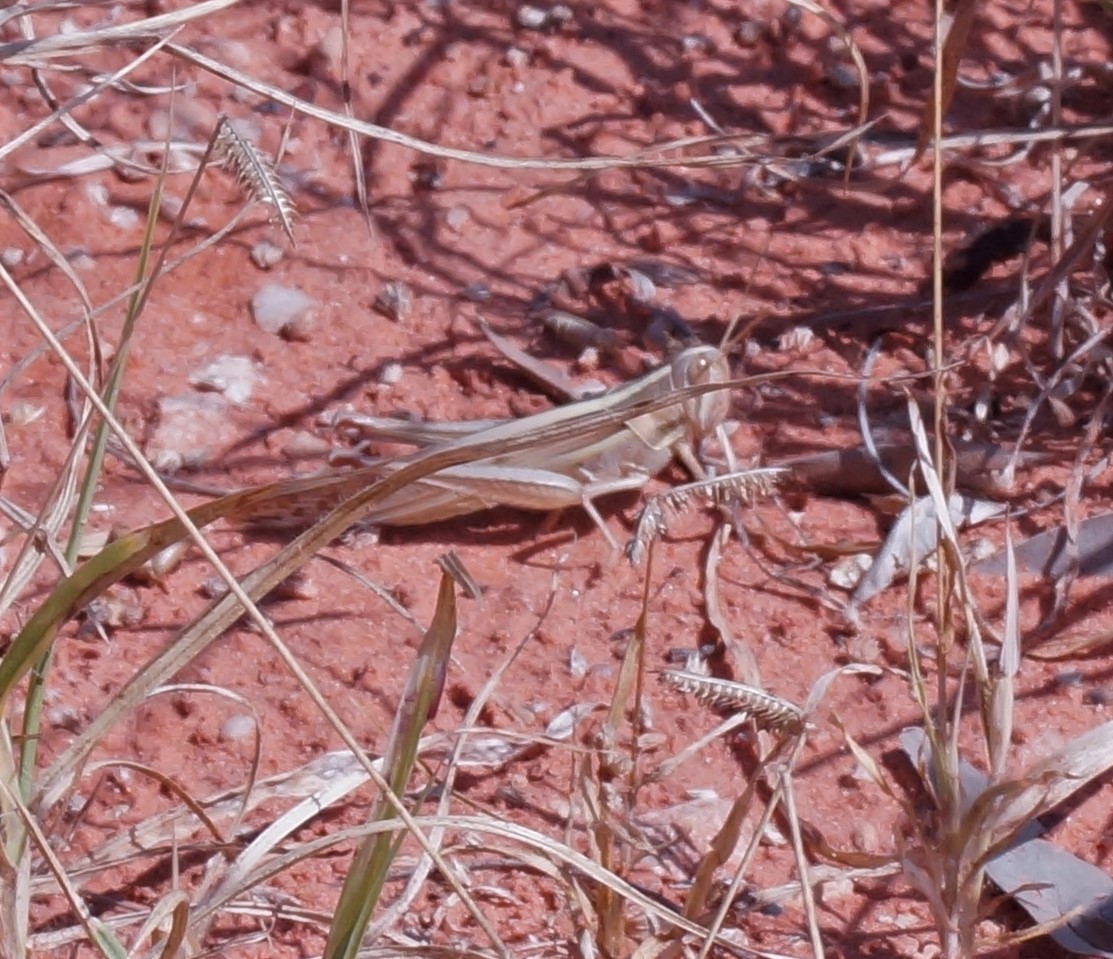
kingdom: Animalia
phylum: Arthropoda
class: Insecta
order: Orthoptera
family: Acrididae
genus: Austracris
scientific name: Austracris guttulosa
